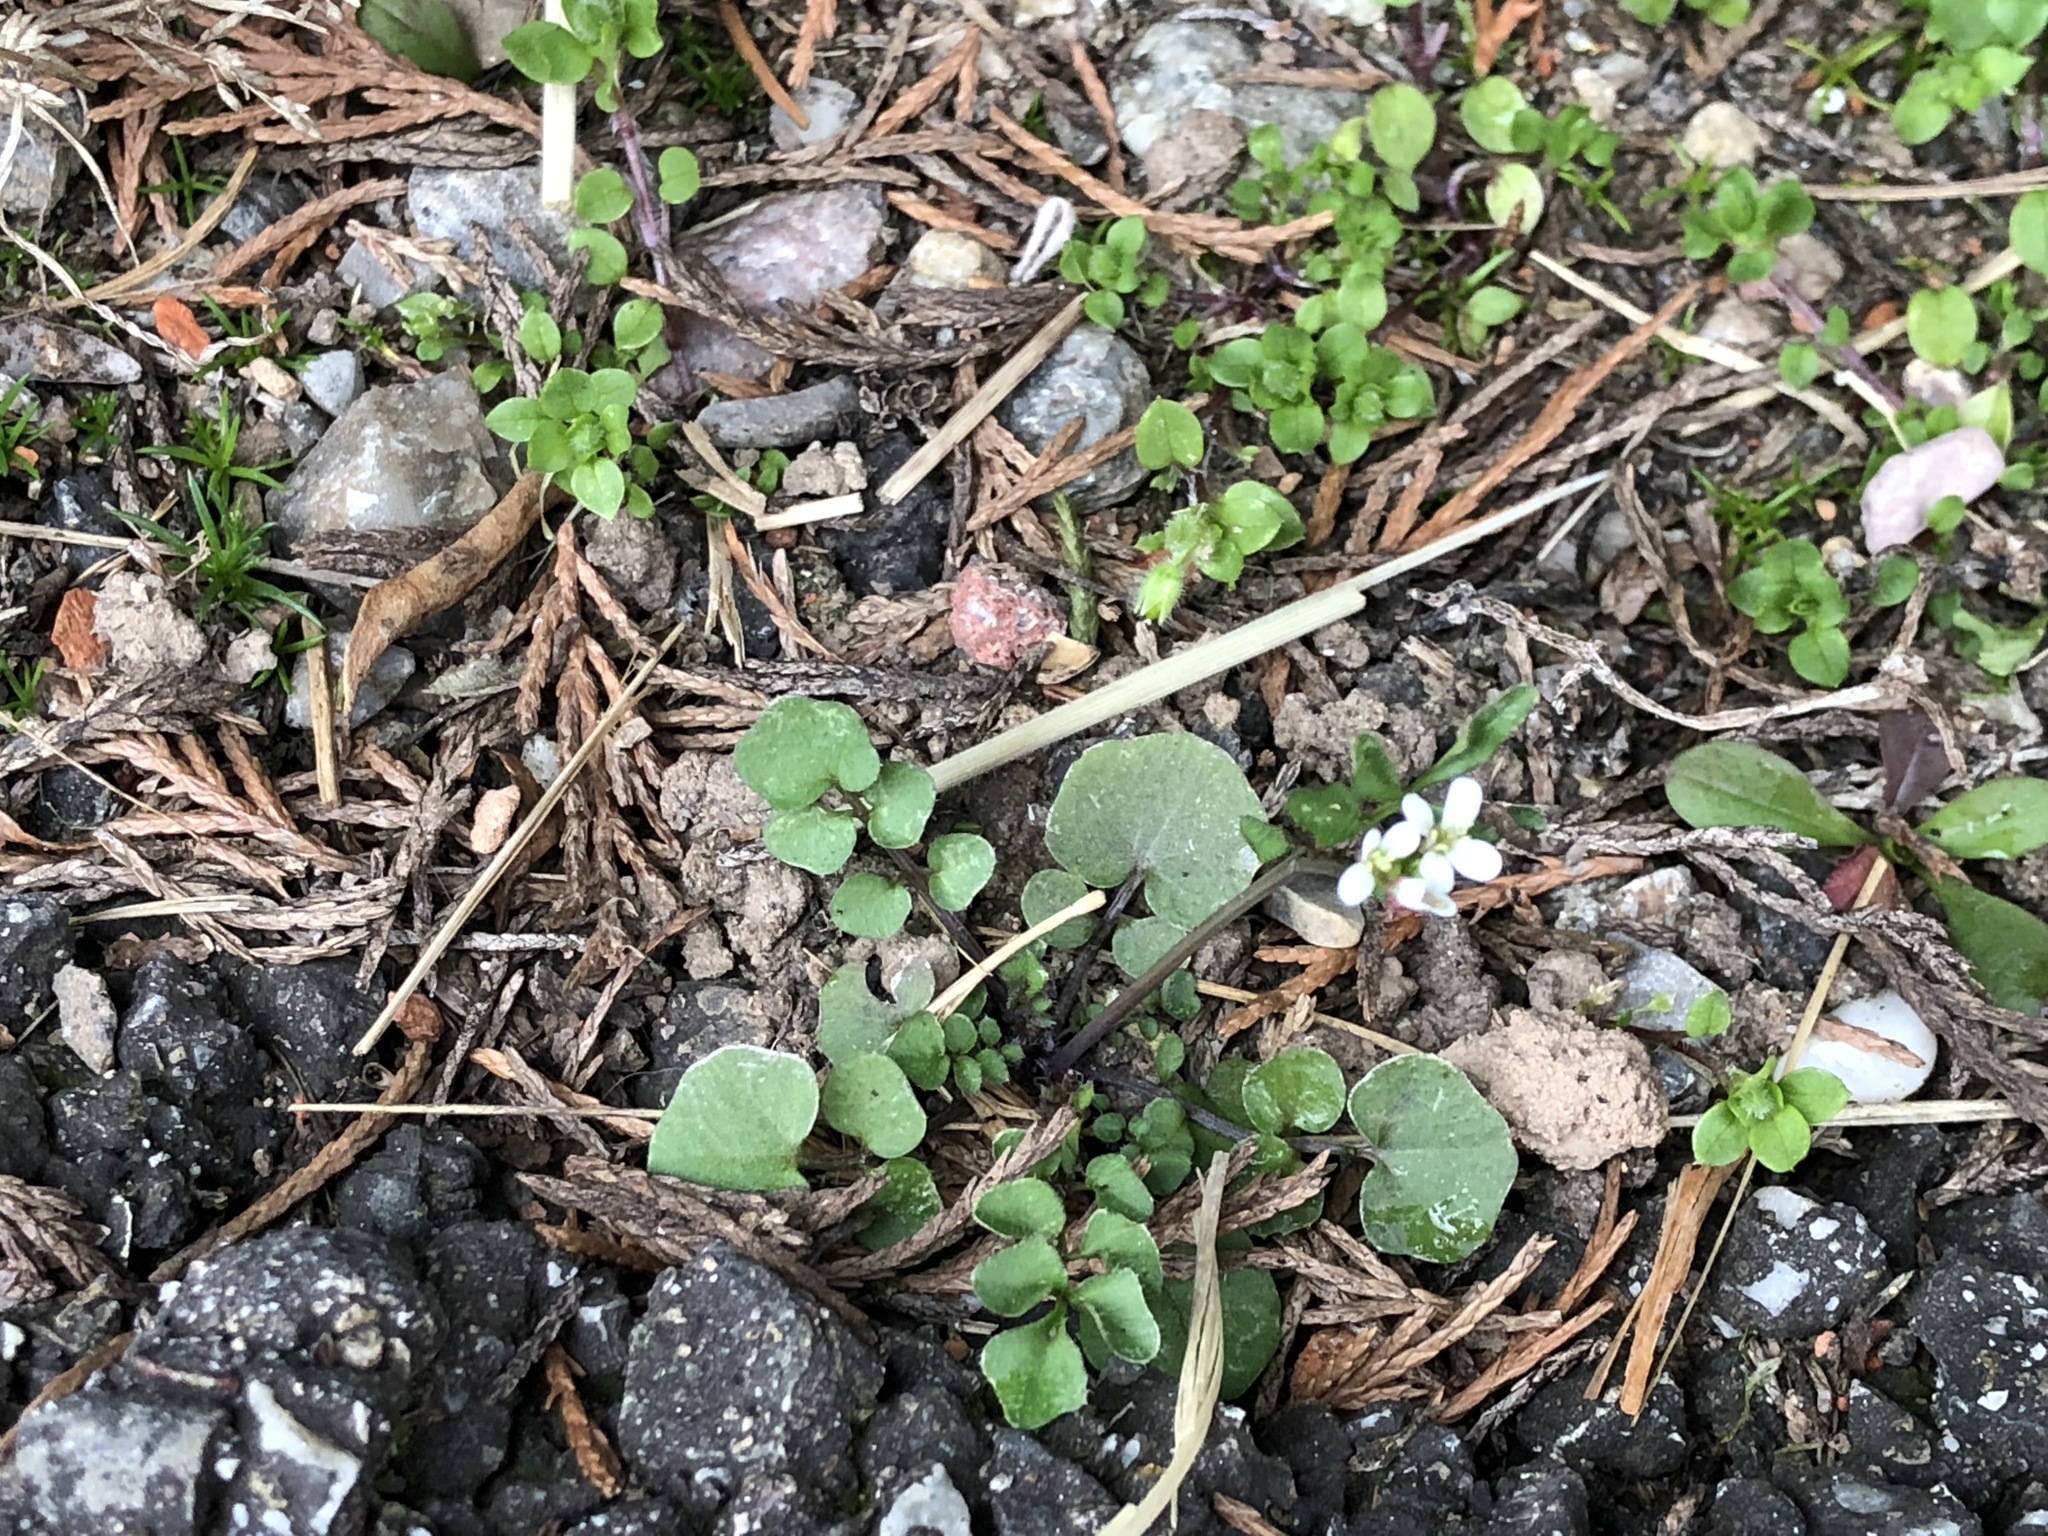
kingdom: Plantae
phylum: Tracheophyta
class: Magnoliopsida
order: Brassicales
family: Brassicaceae
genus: Cardamine
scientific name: Cardamine hirsuta
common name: Hairy bittercress
